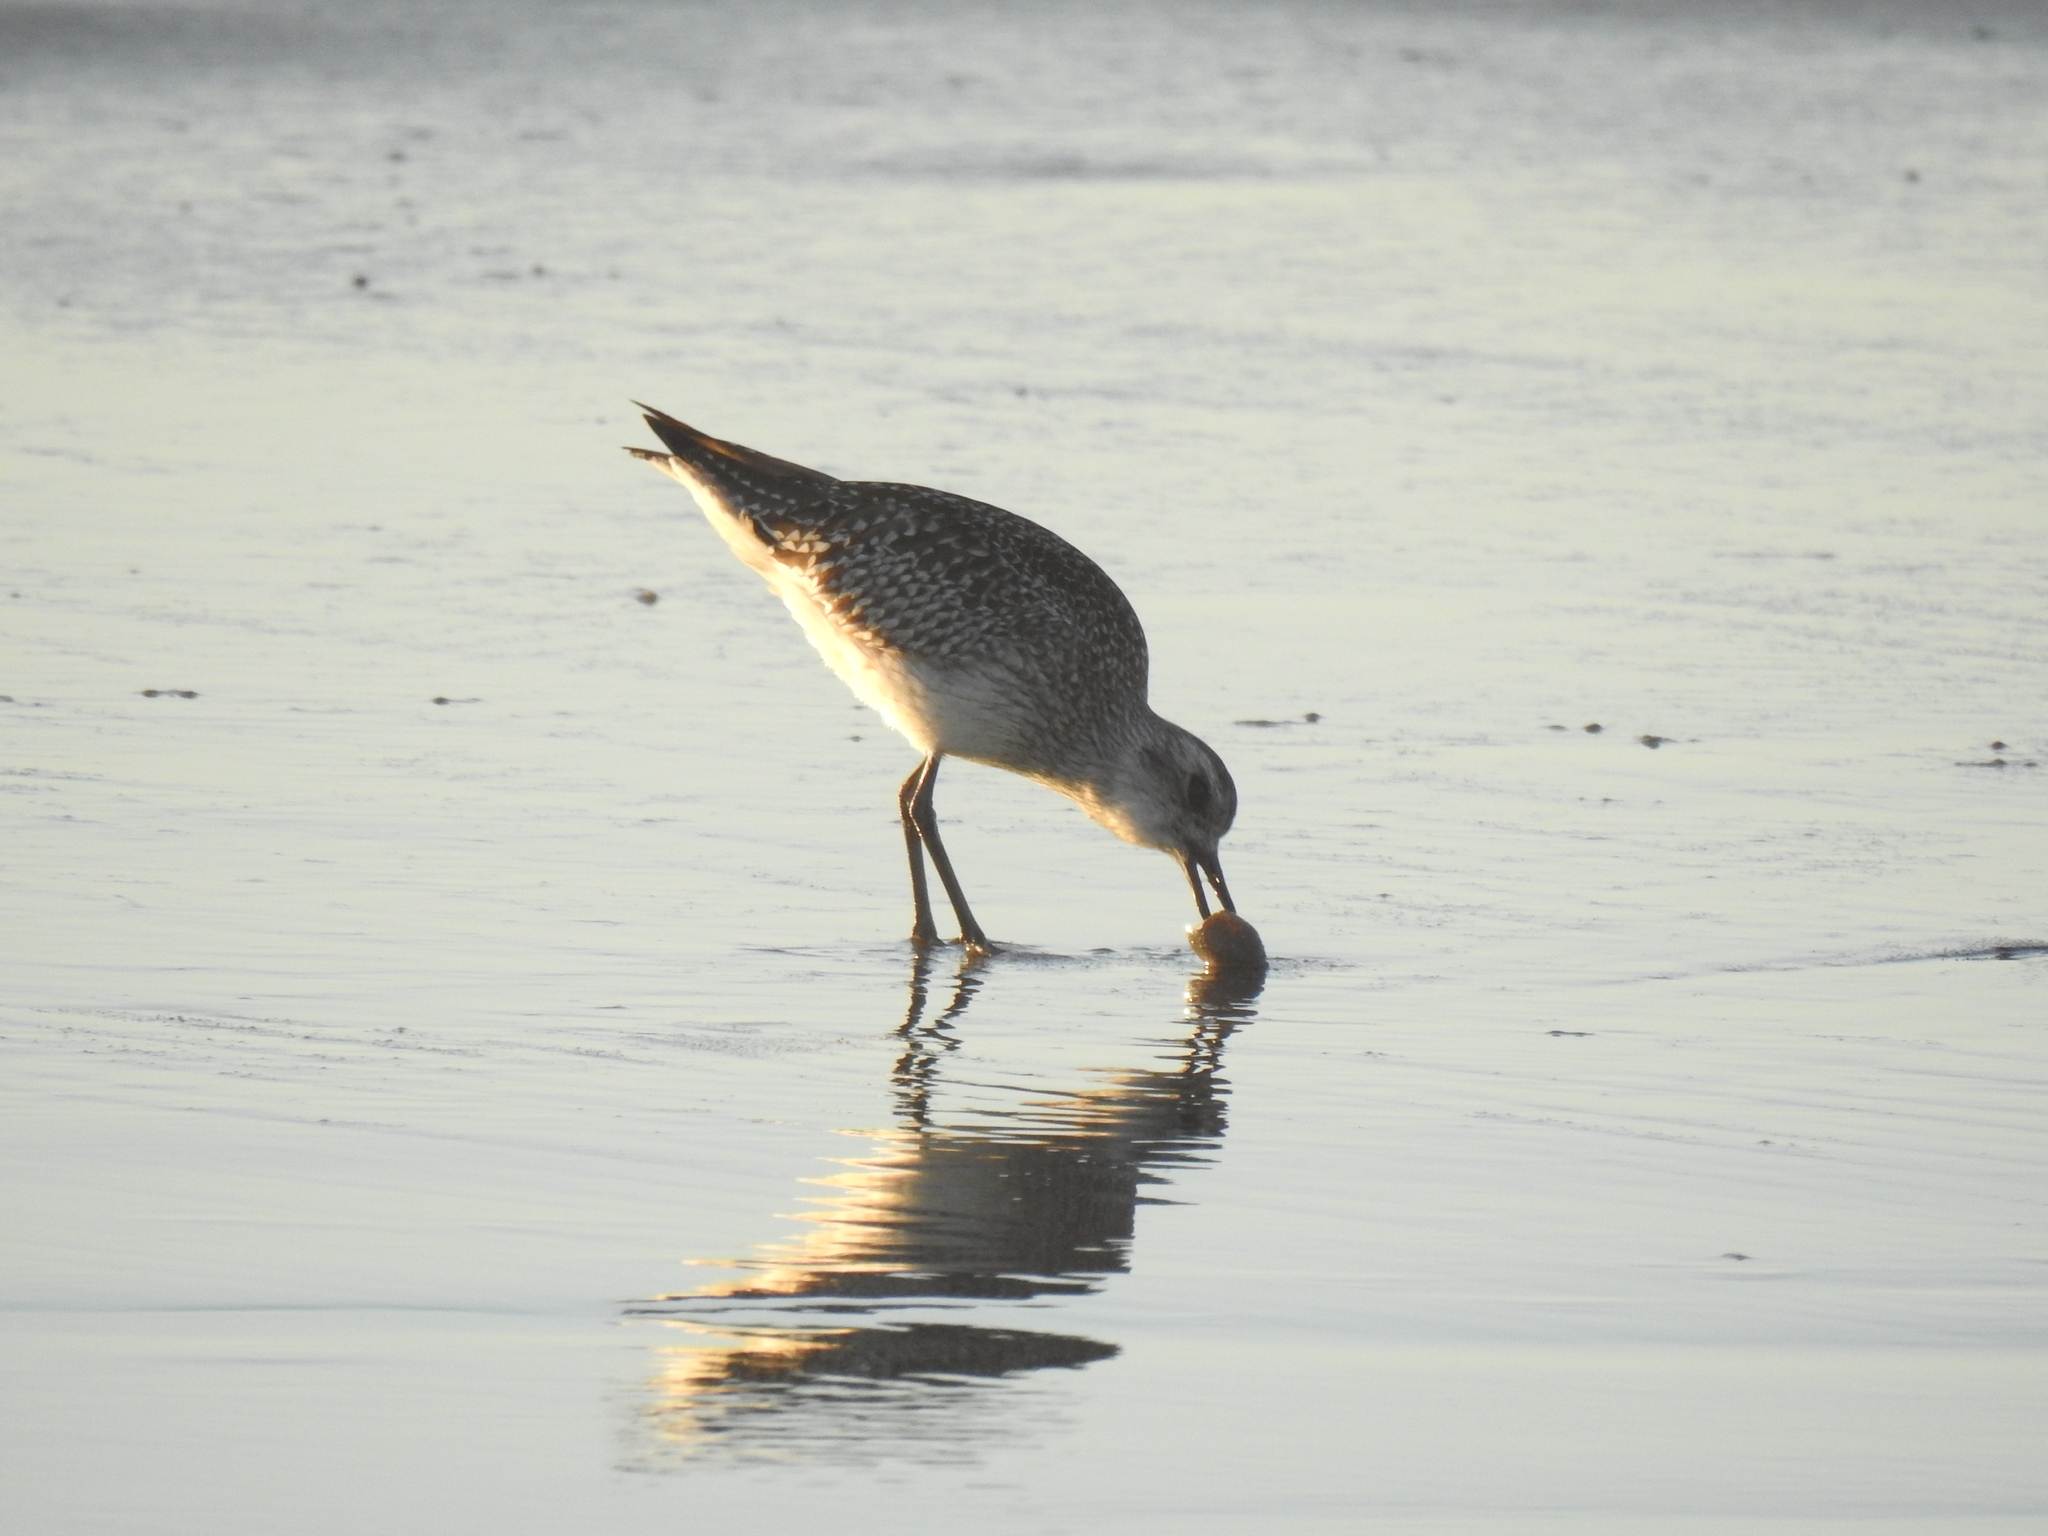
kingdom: Animalia
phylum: Chordata
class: Aves
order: Charadriiformes
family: Charadriidae
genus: Pluvialis
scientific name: Pluvialis squatarola
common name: Grey plover
